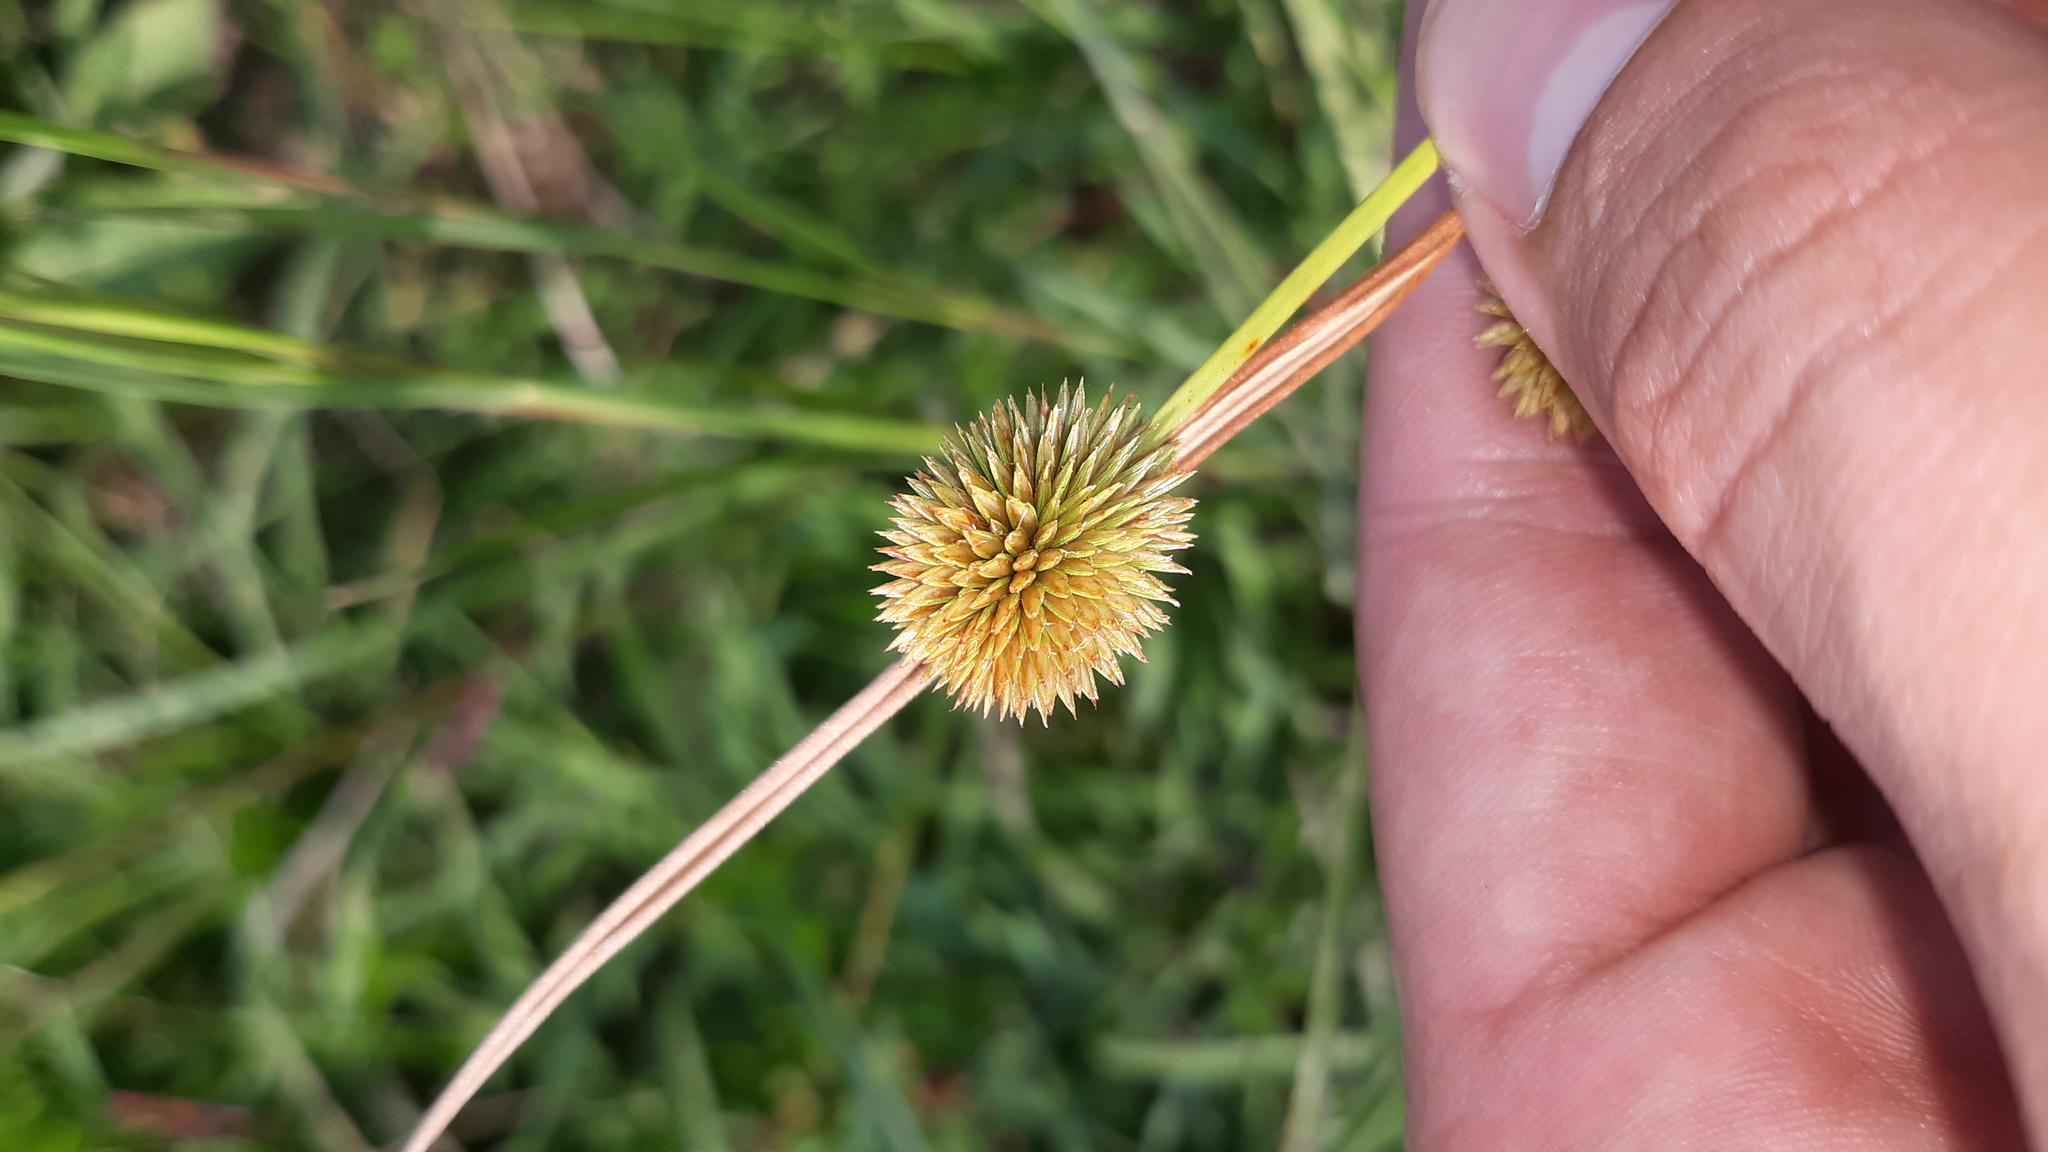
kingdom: Plantae
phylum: Tracheophyta
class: Liliopsida
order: Poales
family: Cyperaceae
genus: Cyperus
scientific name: Cyperus echinatus
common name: Teasel sedge
